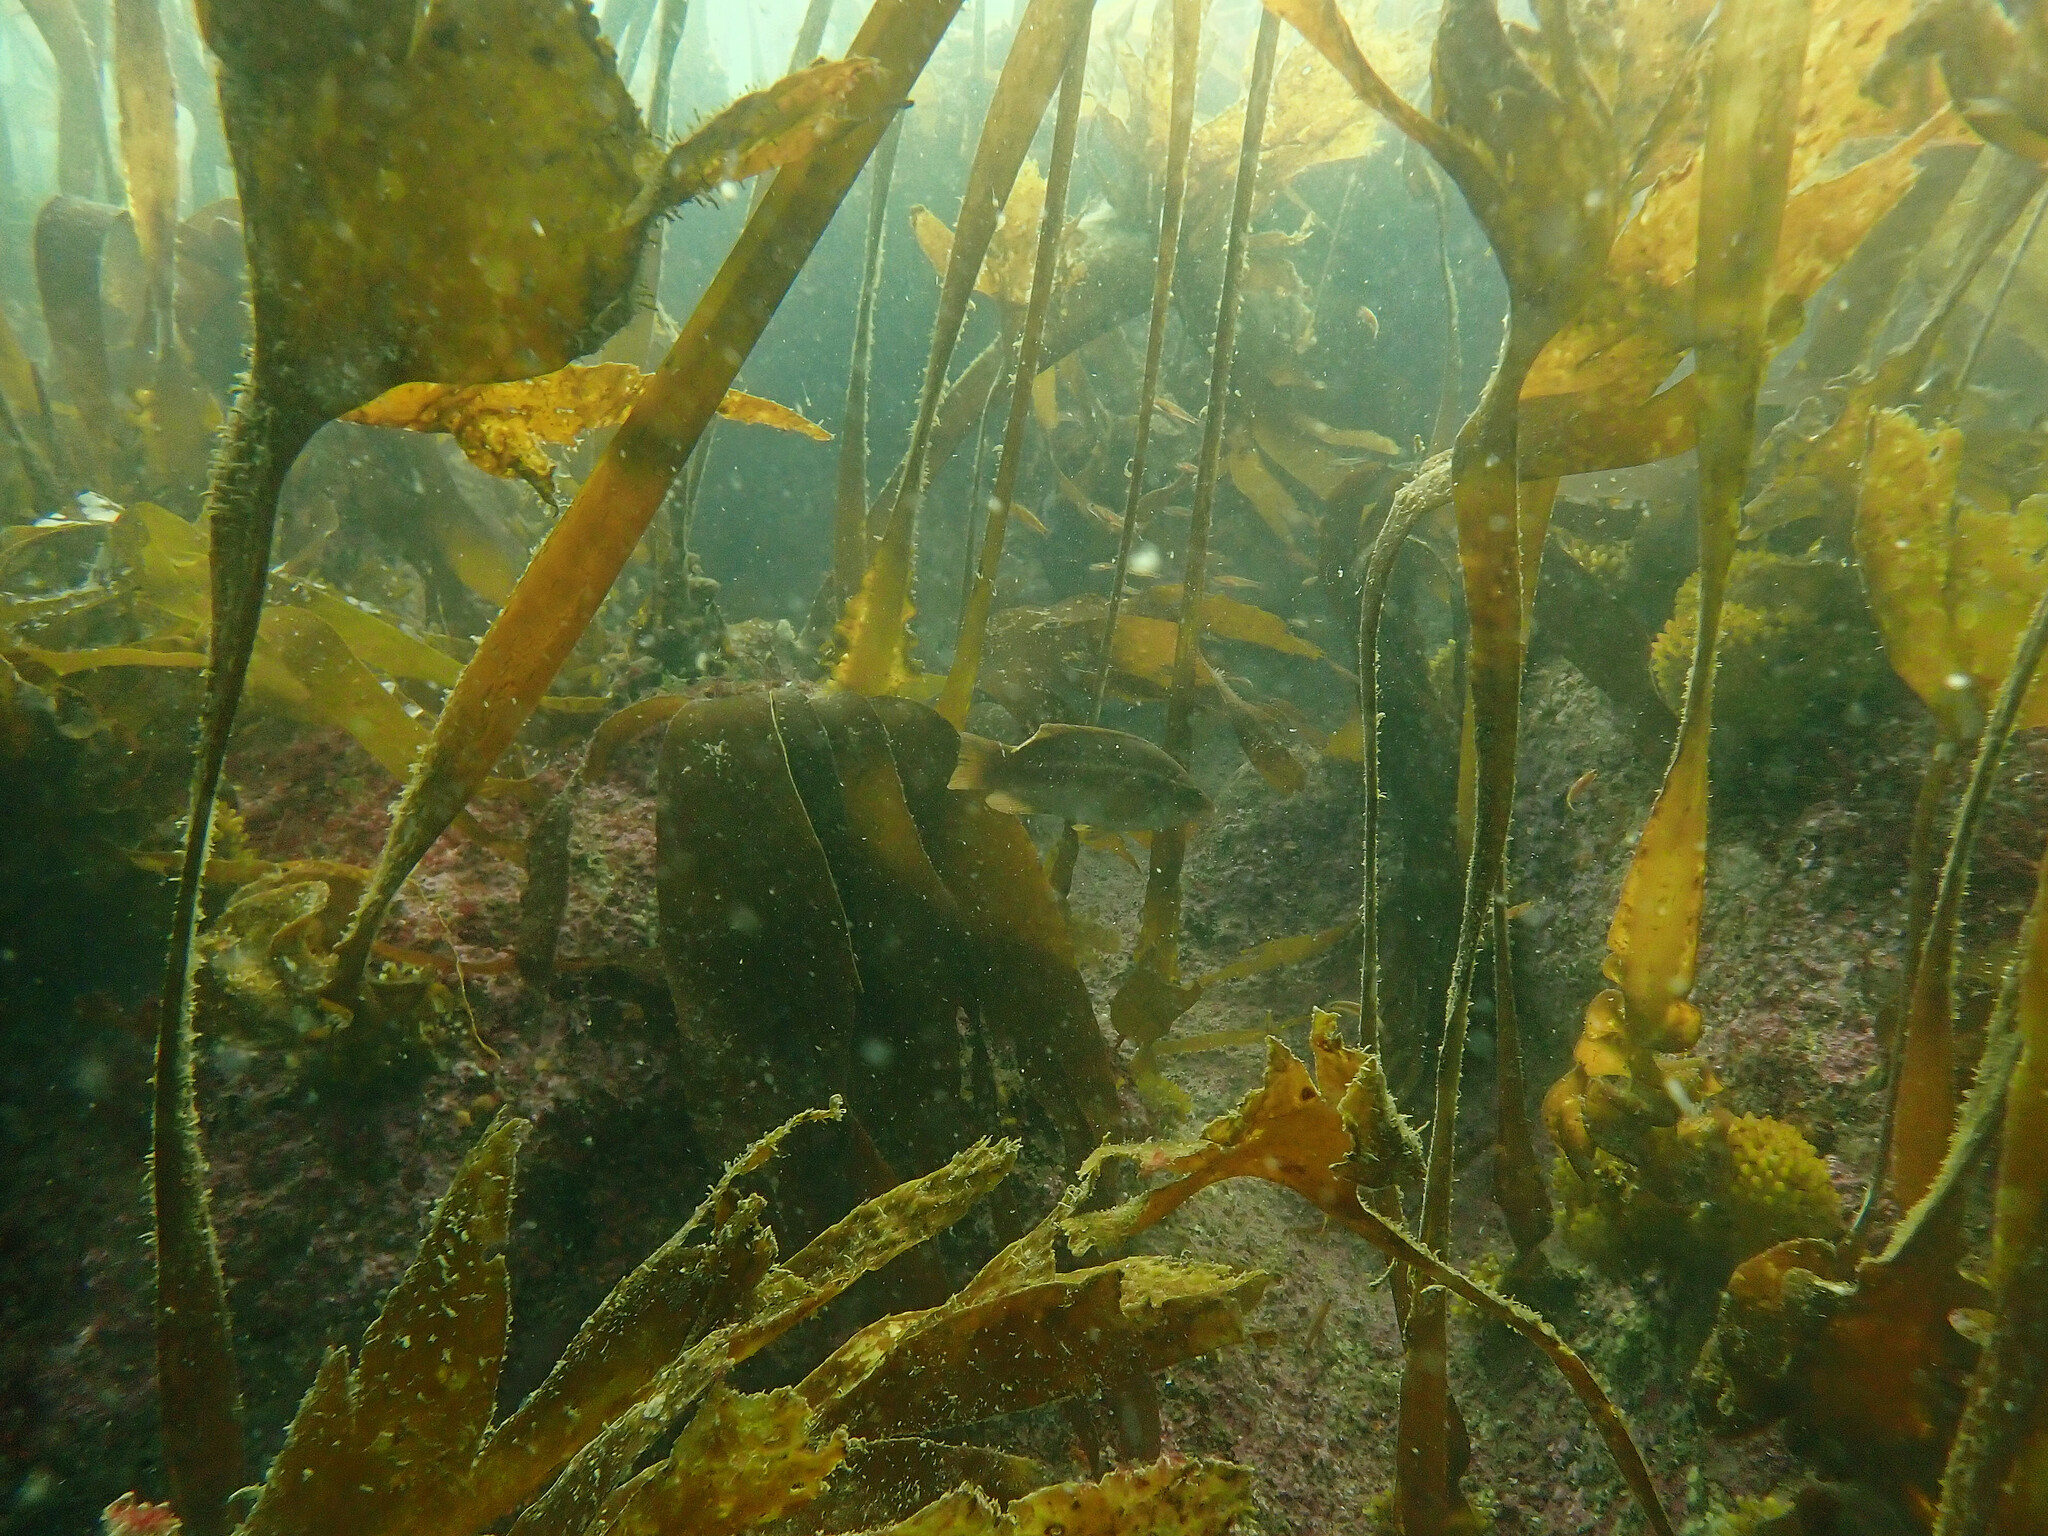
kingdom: Chromista
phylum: Ochrophyta
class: Phaeophyceae
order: Tilopteridales
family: Phyllariaceae
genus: Saccorhiza
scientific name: Saccorhiza polyschides
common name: Furbelows
